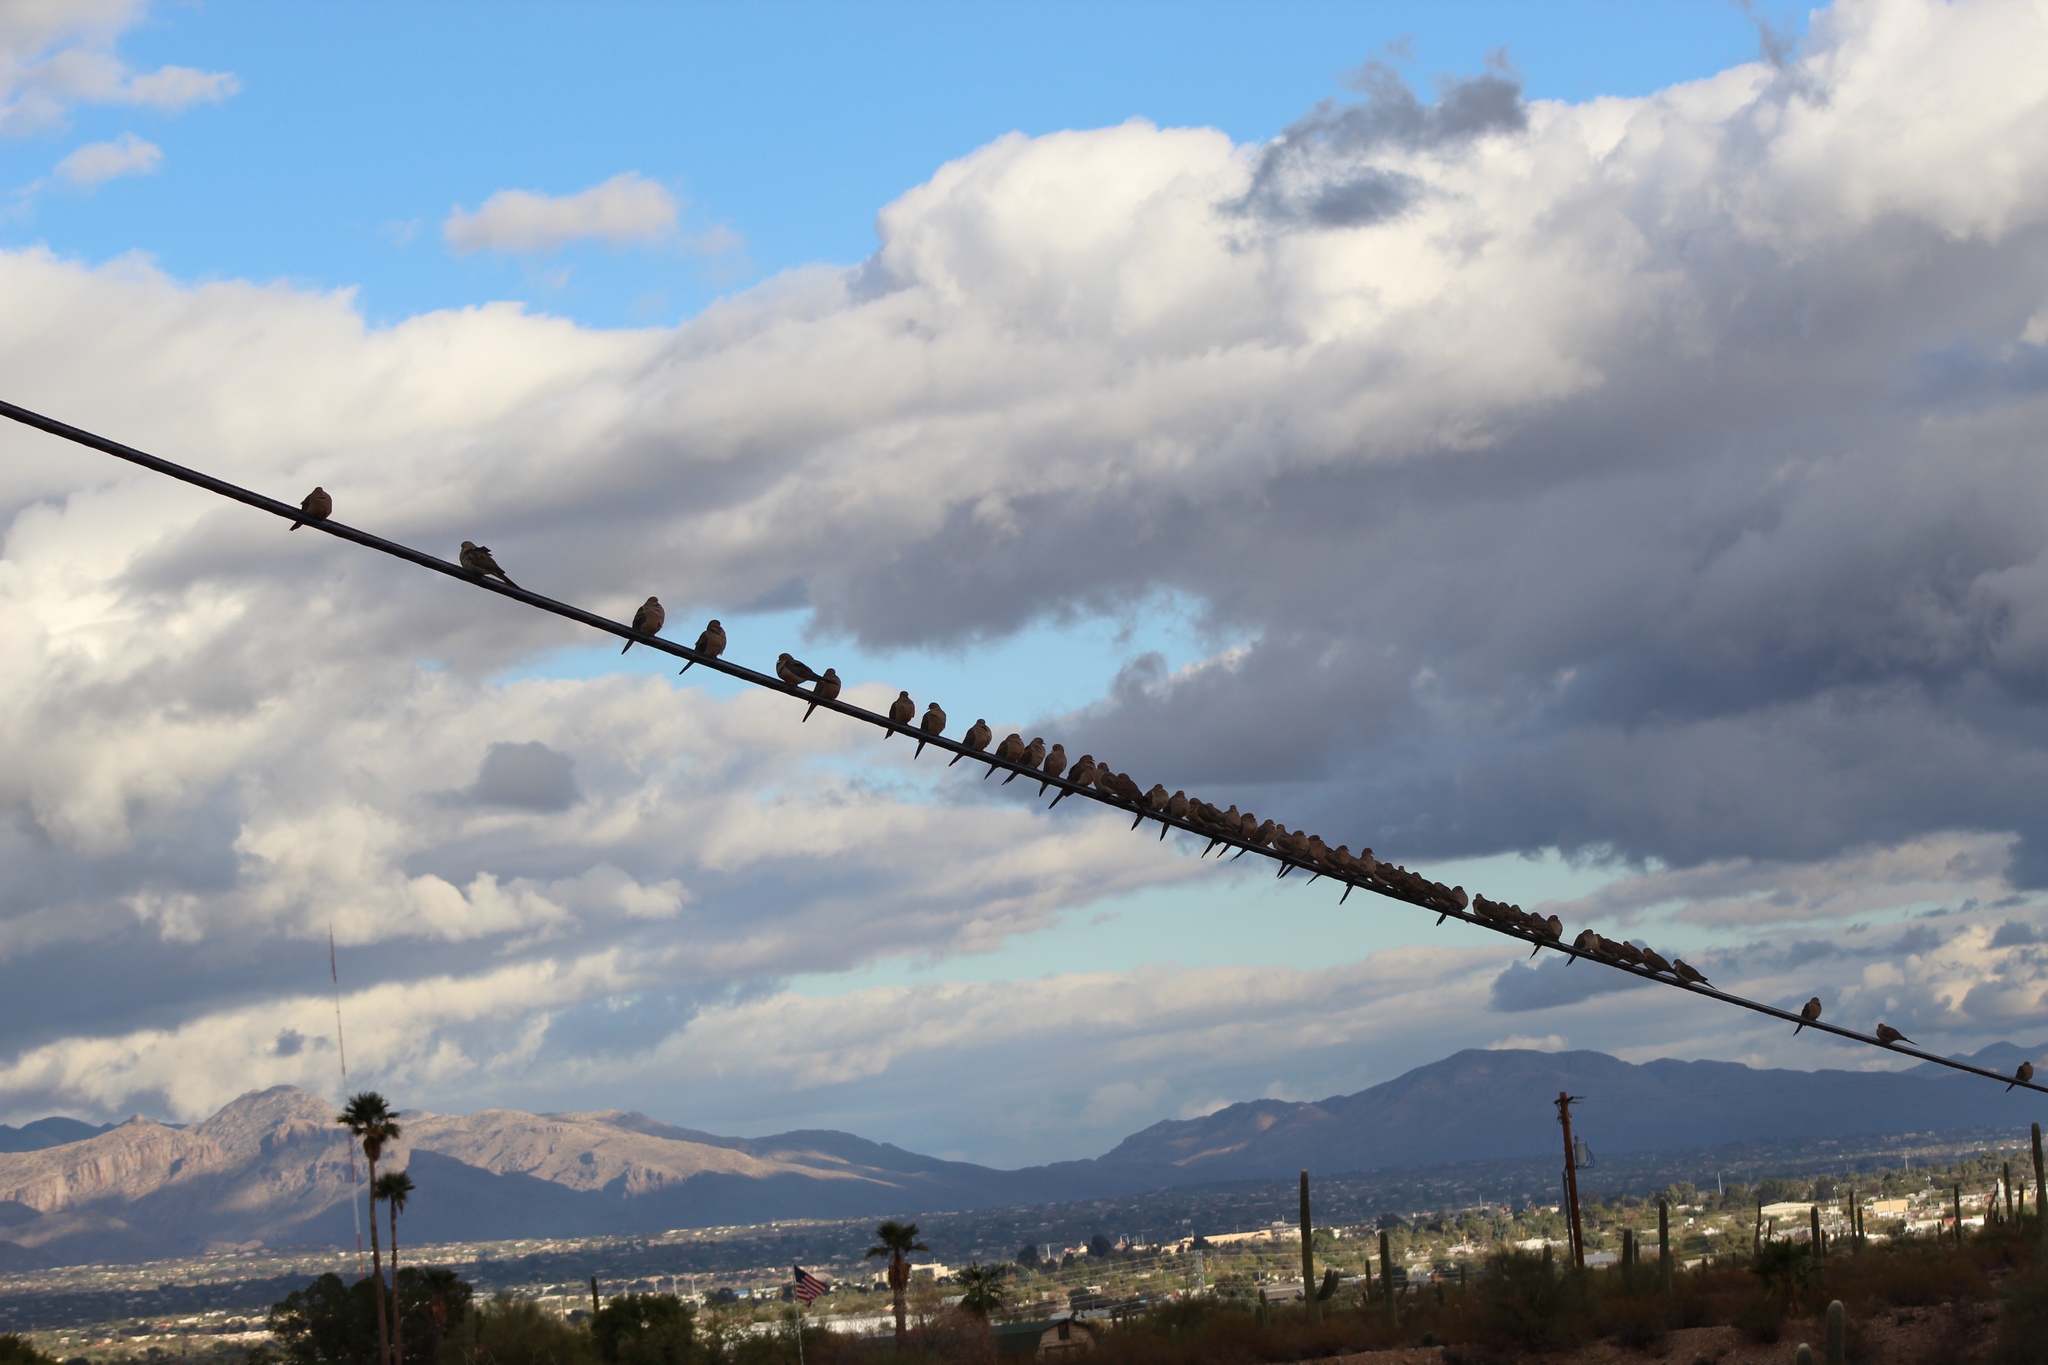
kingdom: Animalia
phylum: Chordata
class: Aves
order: Columbiformes
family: Columbidae
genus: Zenaida
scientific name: Zenaida macroura
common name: Mourning dove
